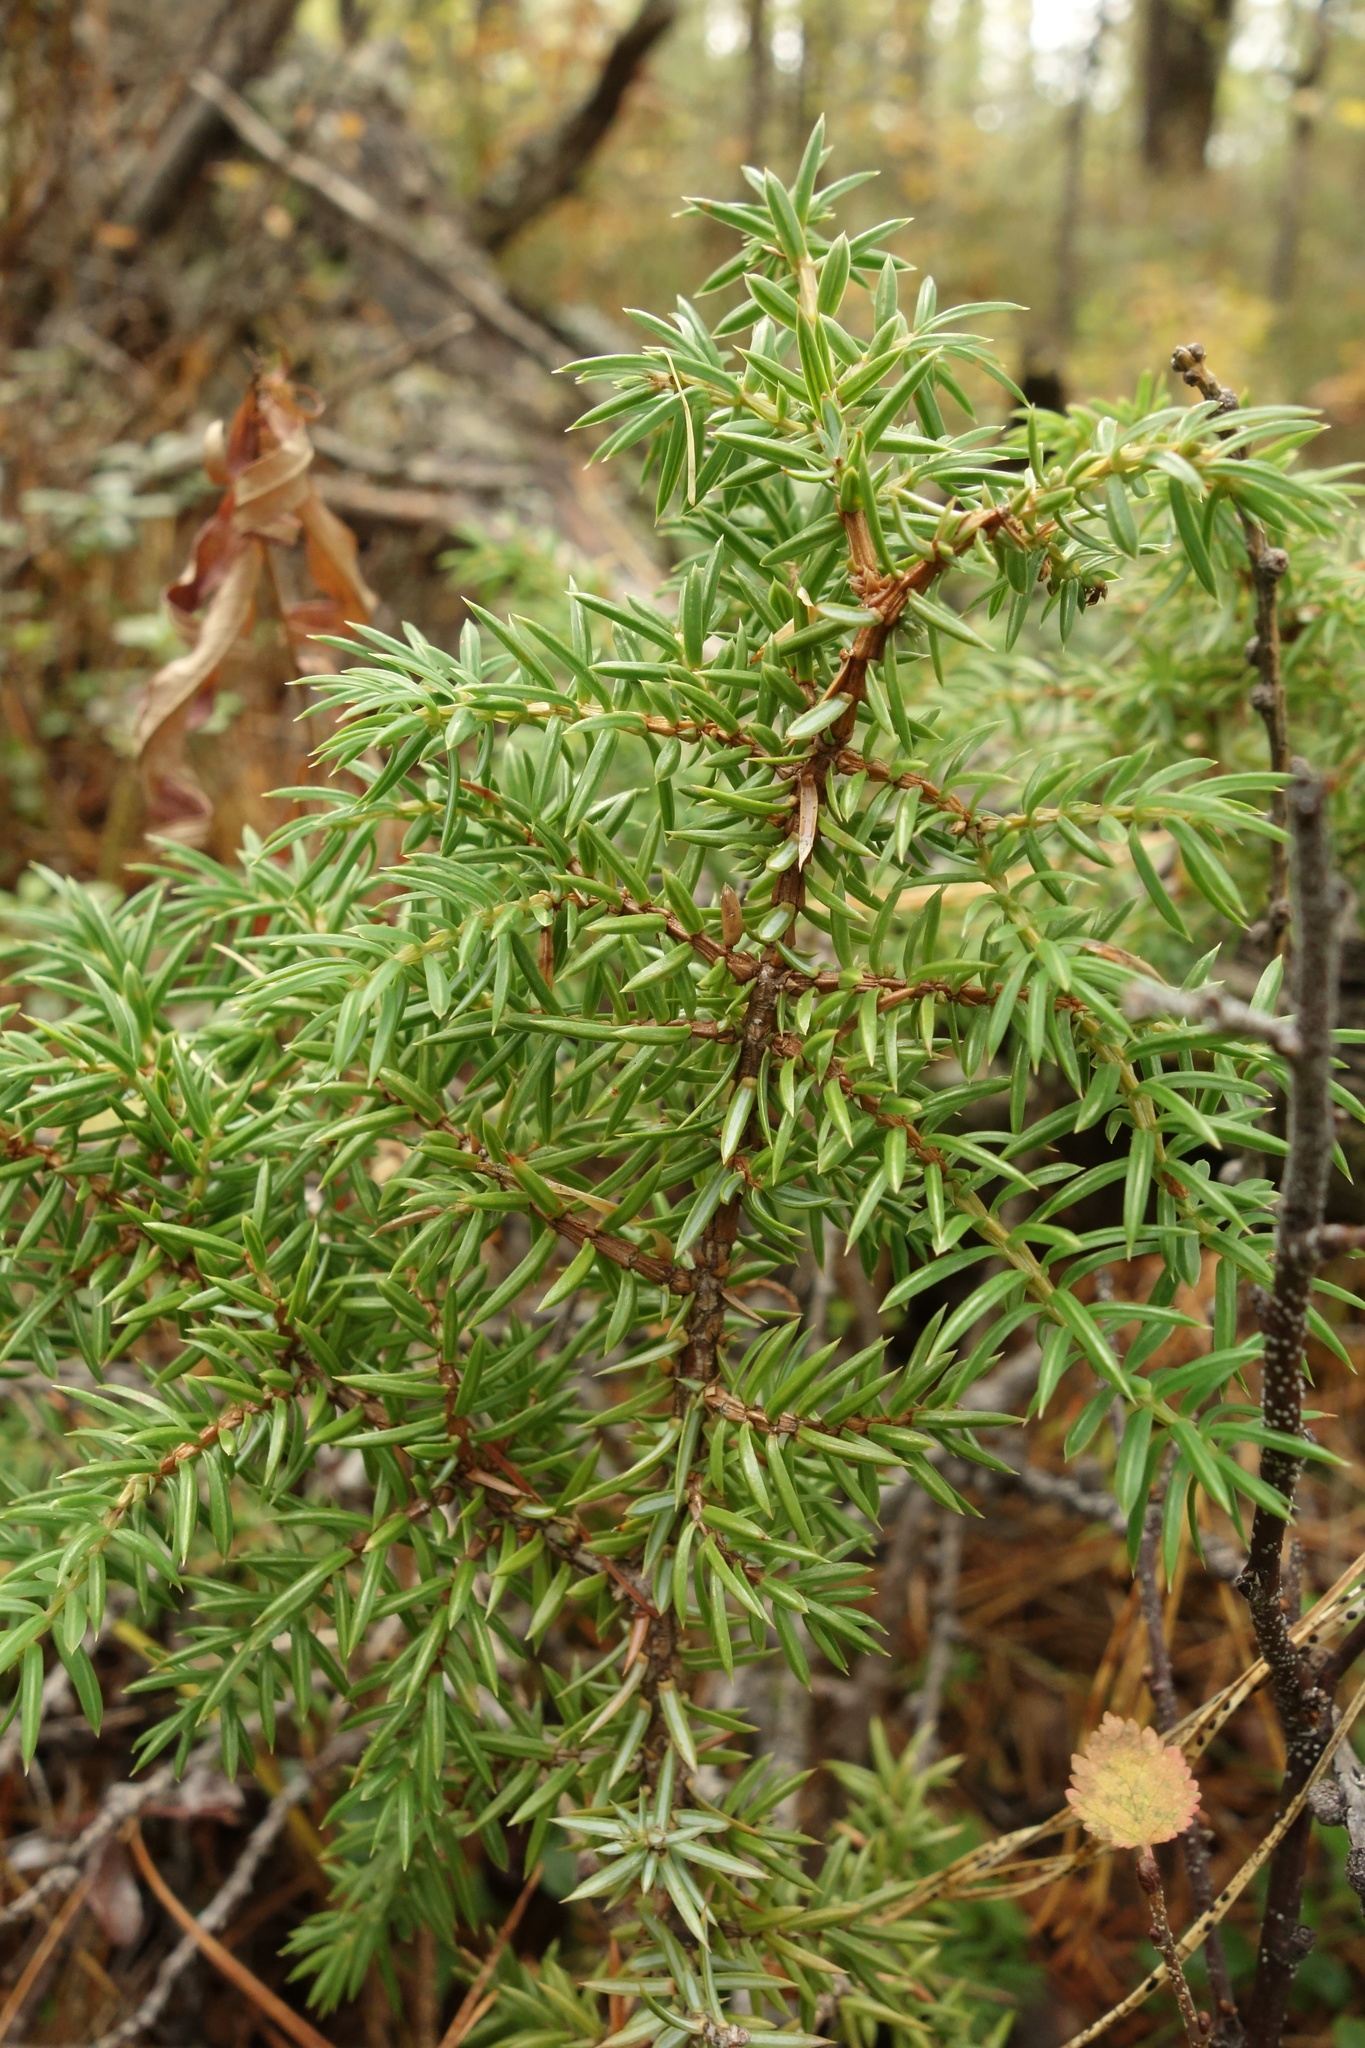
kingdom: Plantae
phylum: Tracheophyta
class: Pinopsida
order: Pinales
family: Cupressaceae
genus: Juniperus
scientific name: Juniperus communis
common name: Common juniper
